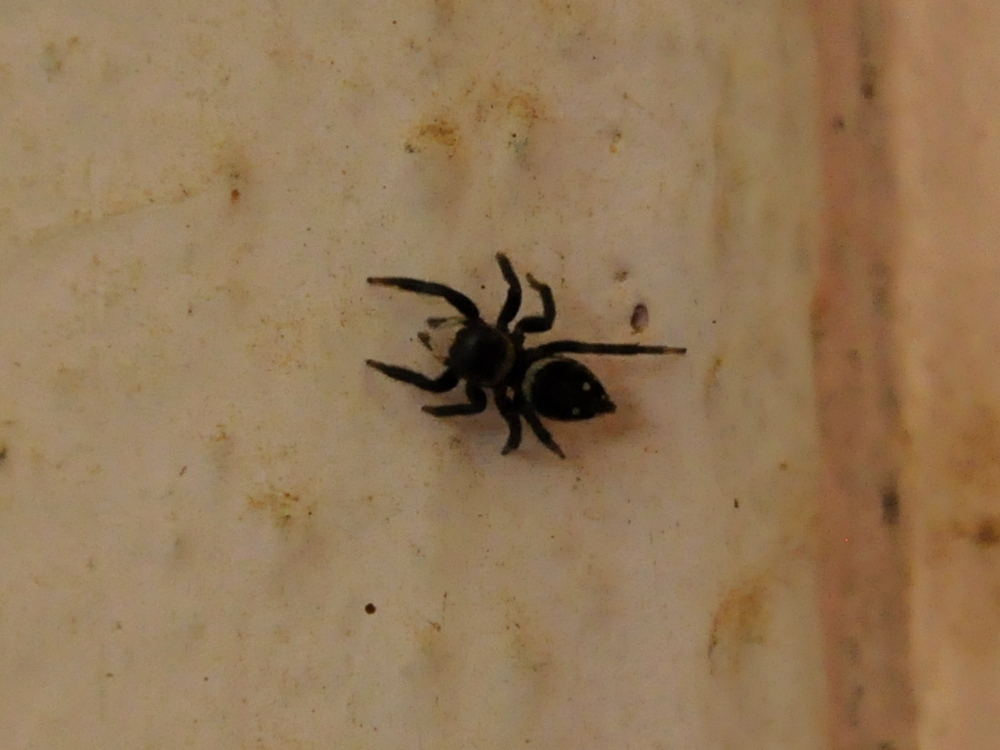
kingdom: Animalia
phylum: Arthropoda
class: Arachnida
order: Araneae
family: Salticidae
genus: Hasarius
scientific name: Hasarius adansoni
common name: Jumping spider
